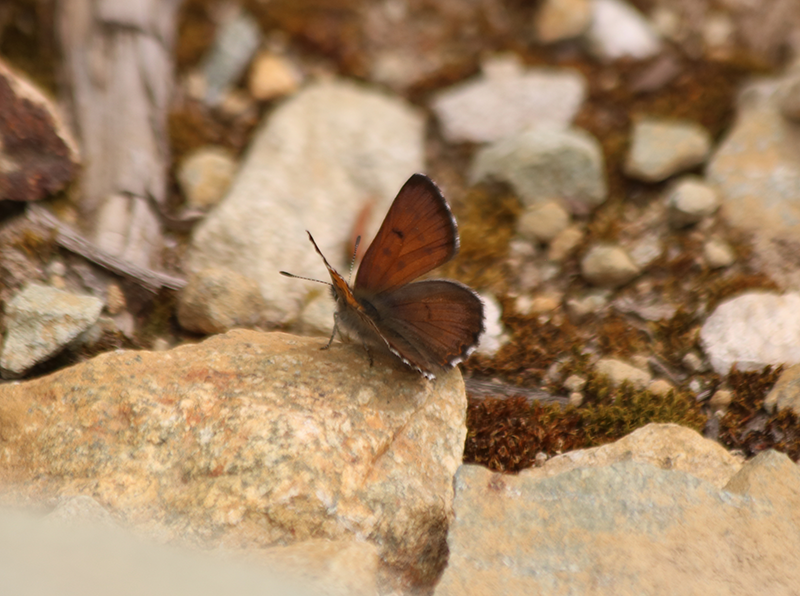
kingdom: Animalia
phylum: Arthropoda
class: Insecta
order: Lepidoptera
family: Lycaenidae
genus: Tharsalea
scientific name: Tharsalea mariposa
